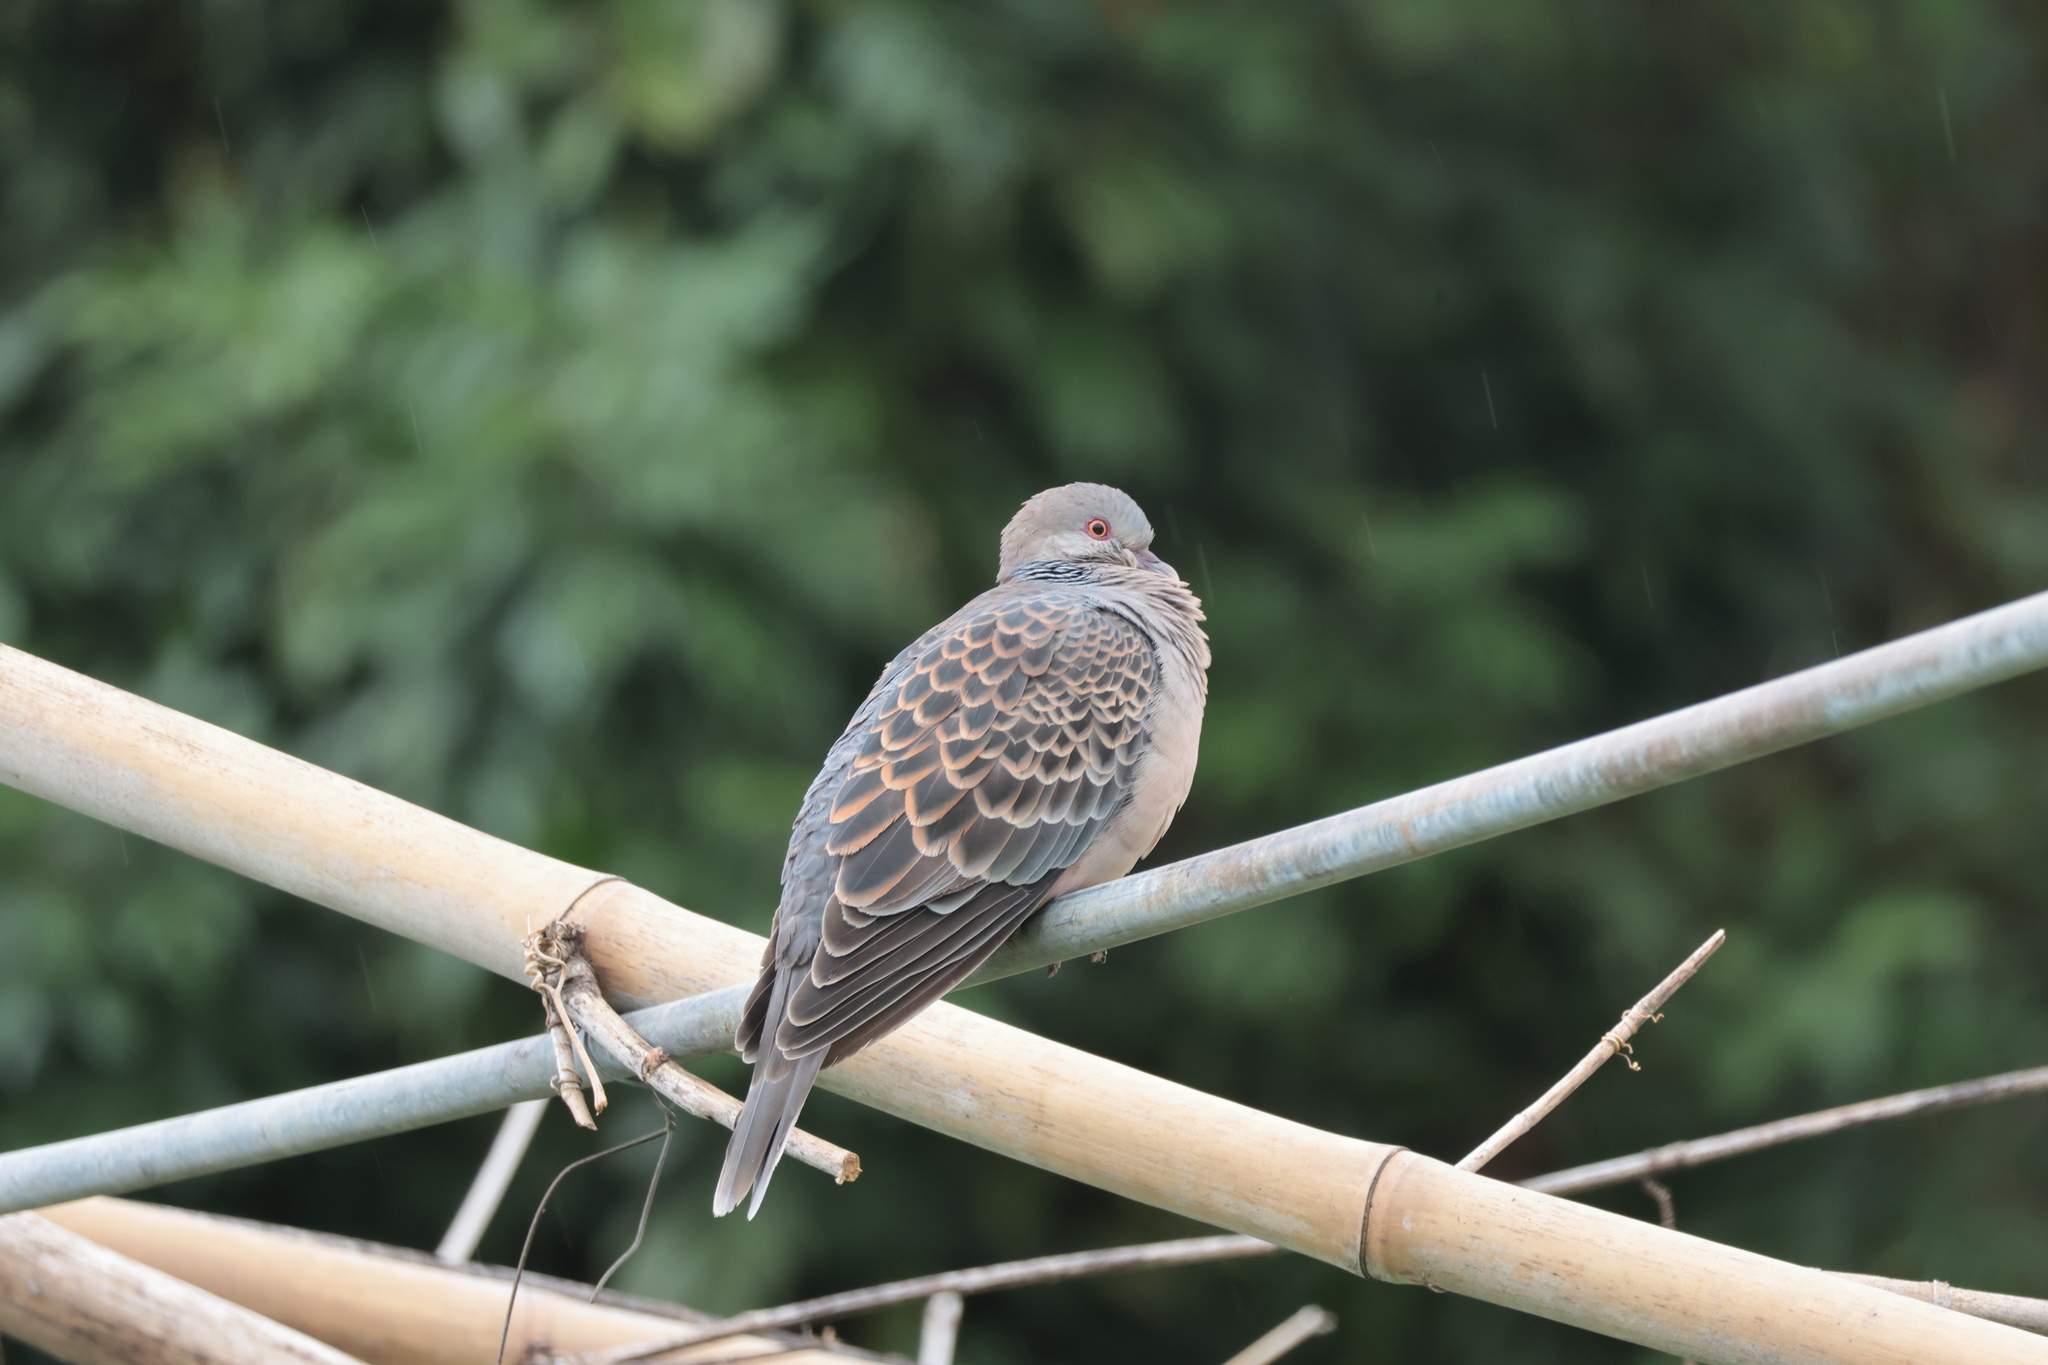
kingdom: Animalia
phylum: Chordata
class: Aves
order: Columbiformes
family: Columbidae
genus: Streptopelia
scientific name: Streptopelia orientalis
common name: Oriental turtle dove
